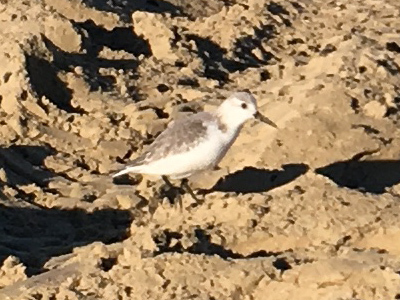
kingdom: Animalia
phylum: Chordata
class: Aves
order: Charadriiformes
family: Scolopacidae
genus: Calidris
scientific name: Calidris alba
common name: Sanderling
